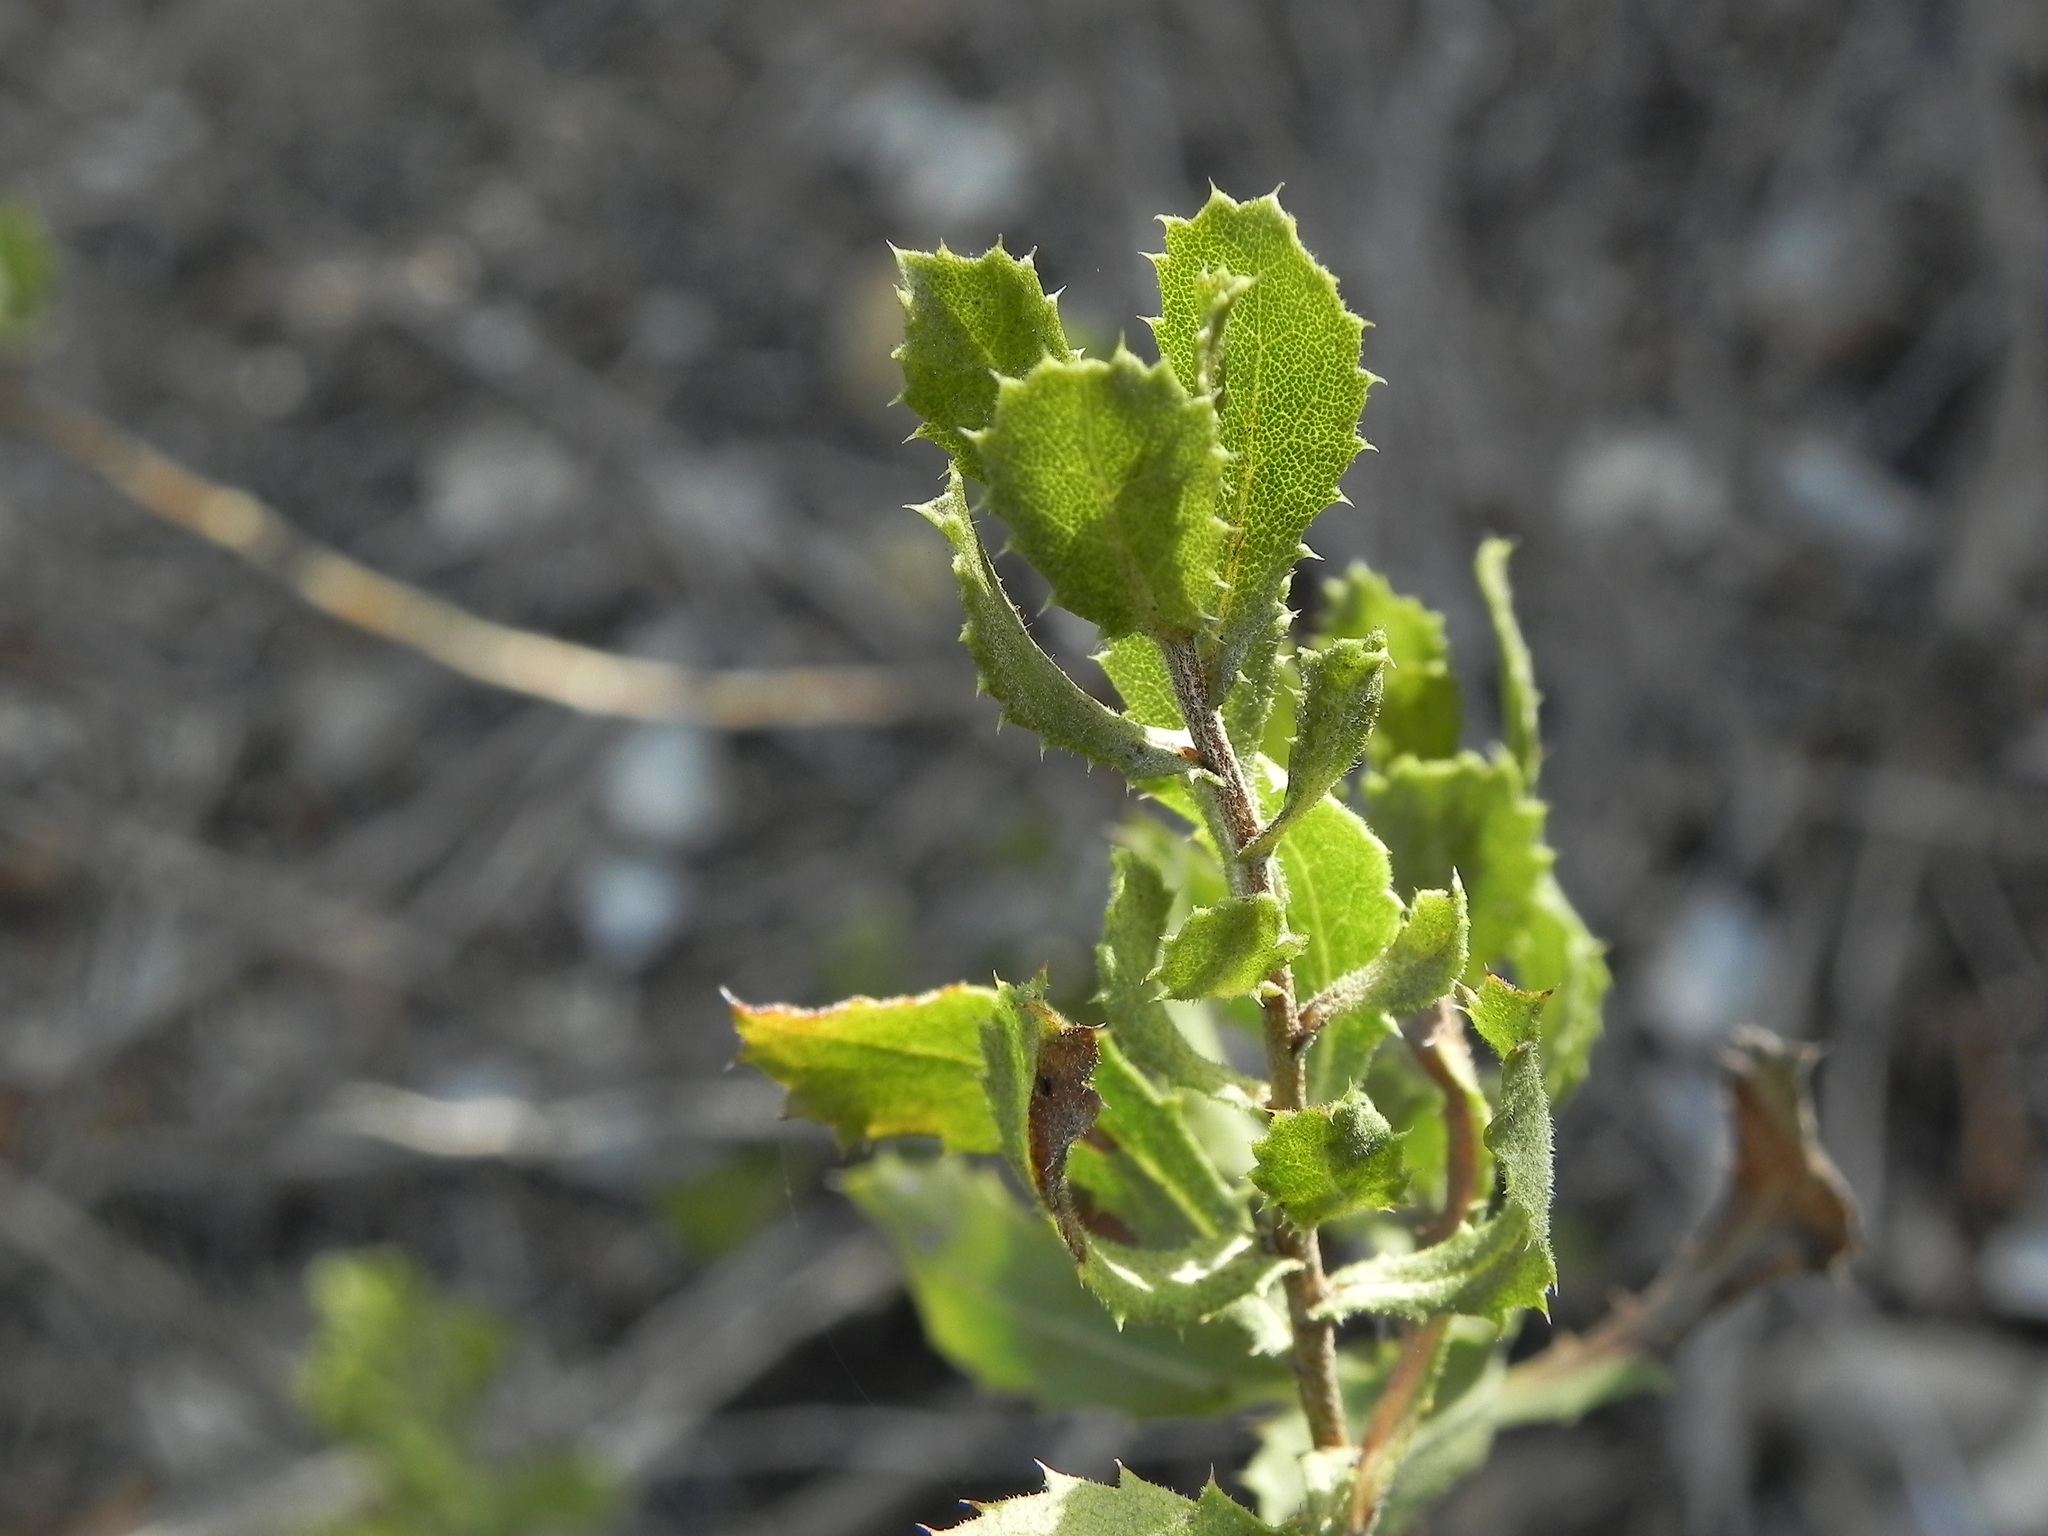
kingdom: Plantae
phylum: Tracheophyta
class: Magnoliopsida
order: Asterales
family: Asteraceae
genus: Hazardia
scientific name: Hazardia squarrosa
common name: Saw-tooth goldenbush
